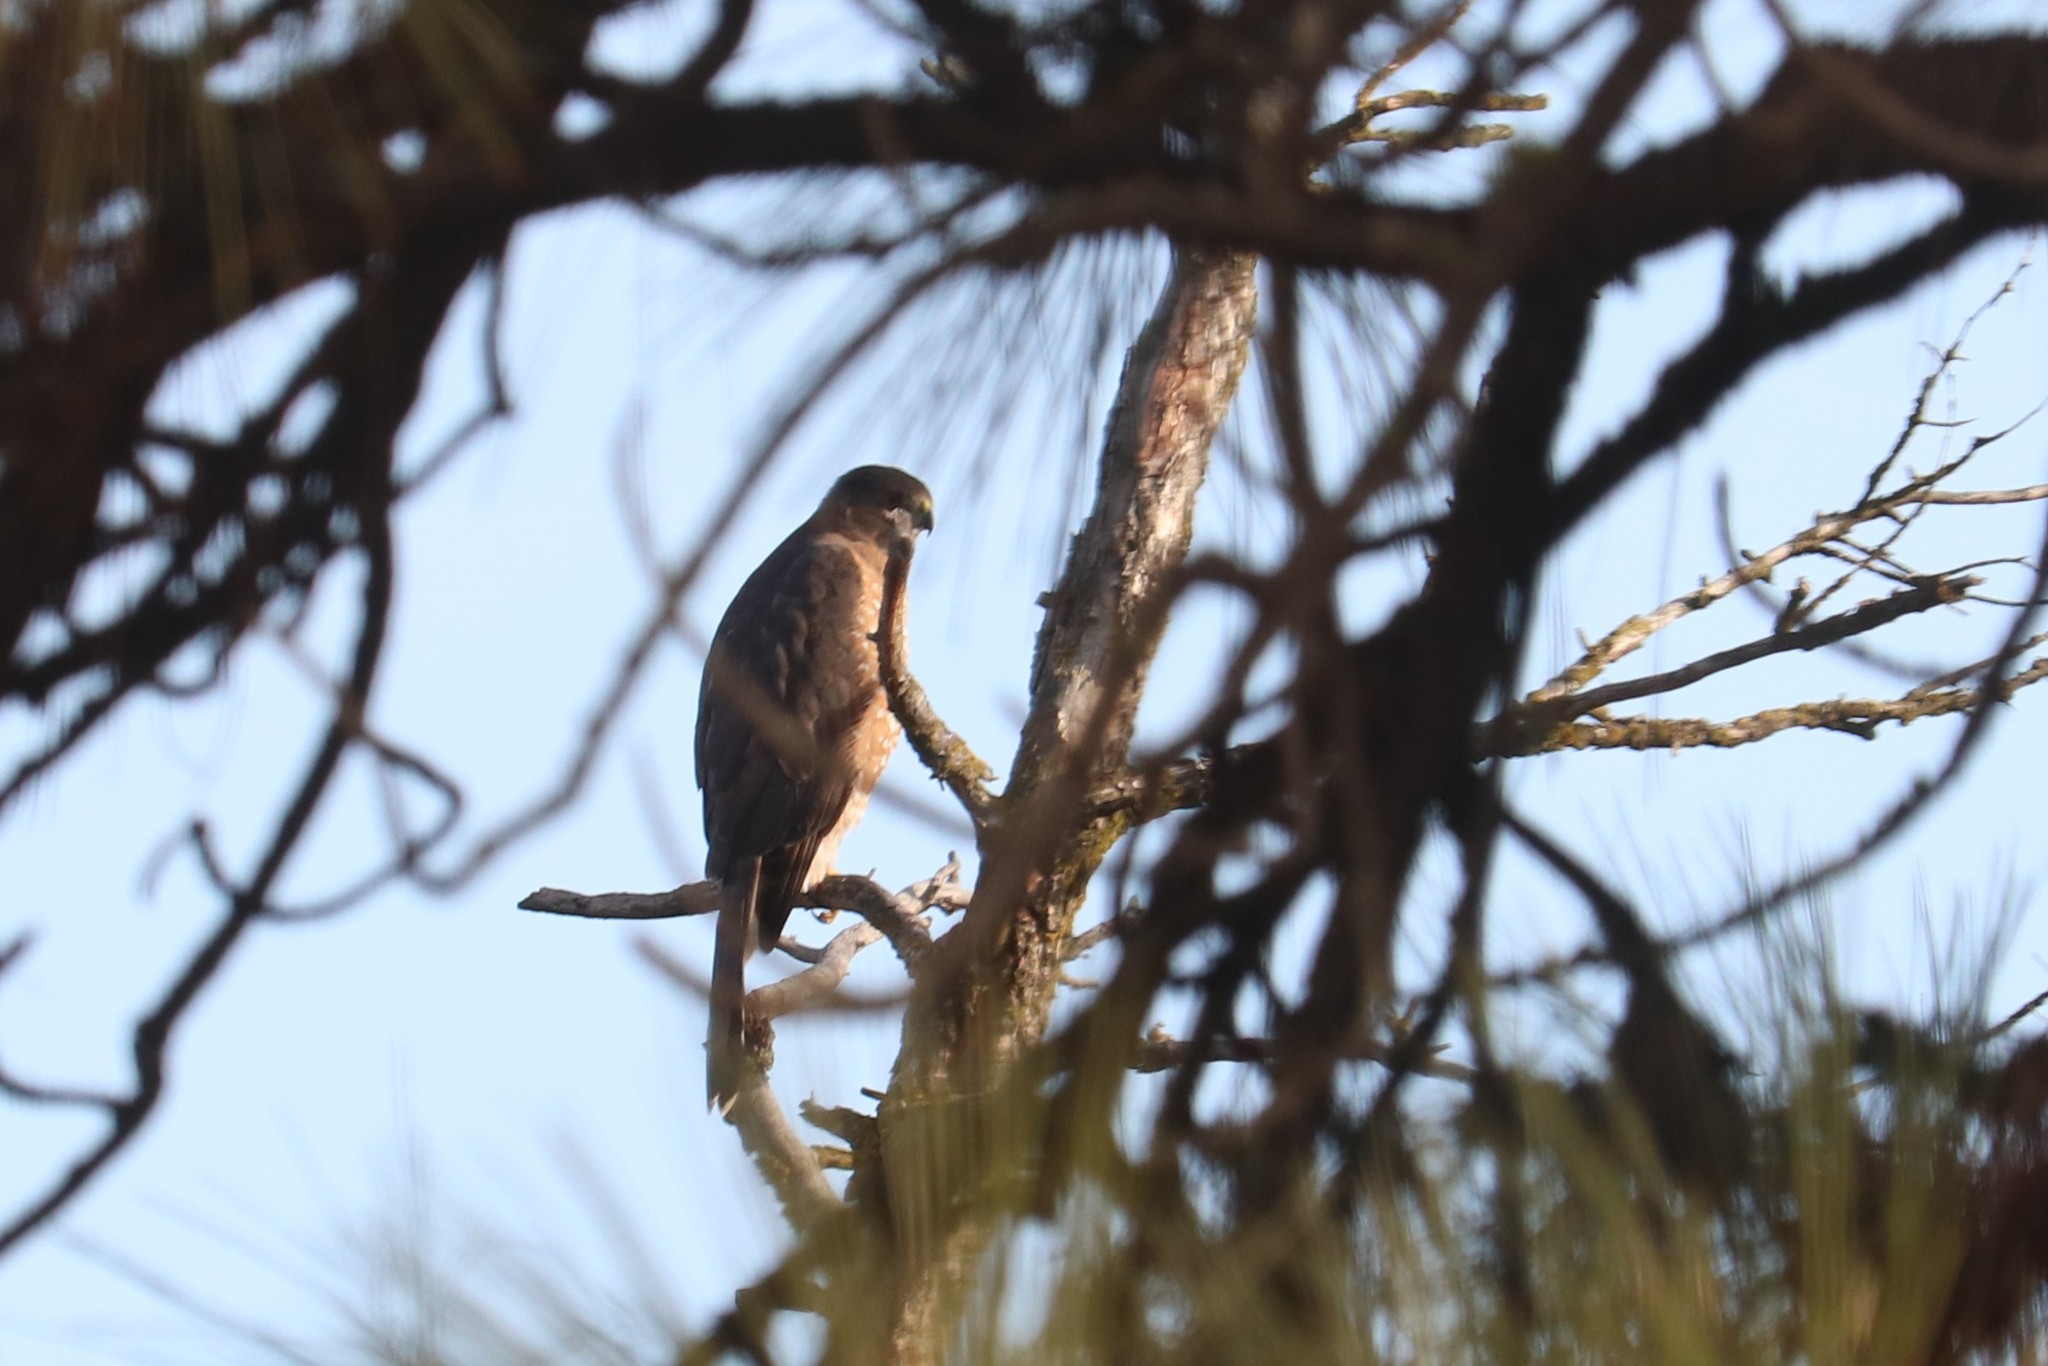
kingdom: Animalia
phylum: Chordata
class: Aves
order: Accipitriformes
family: Accipitridae
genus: Accipiter
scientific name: Accipiter cooperii
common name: Cooper's hawk
